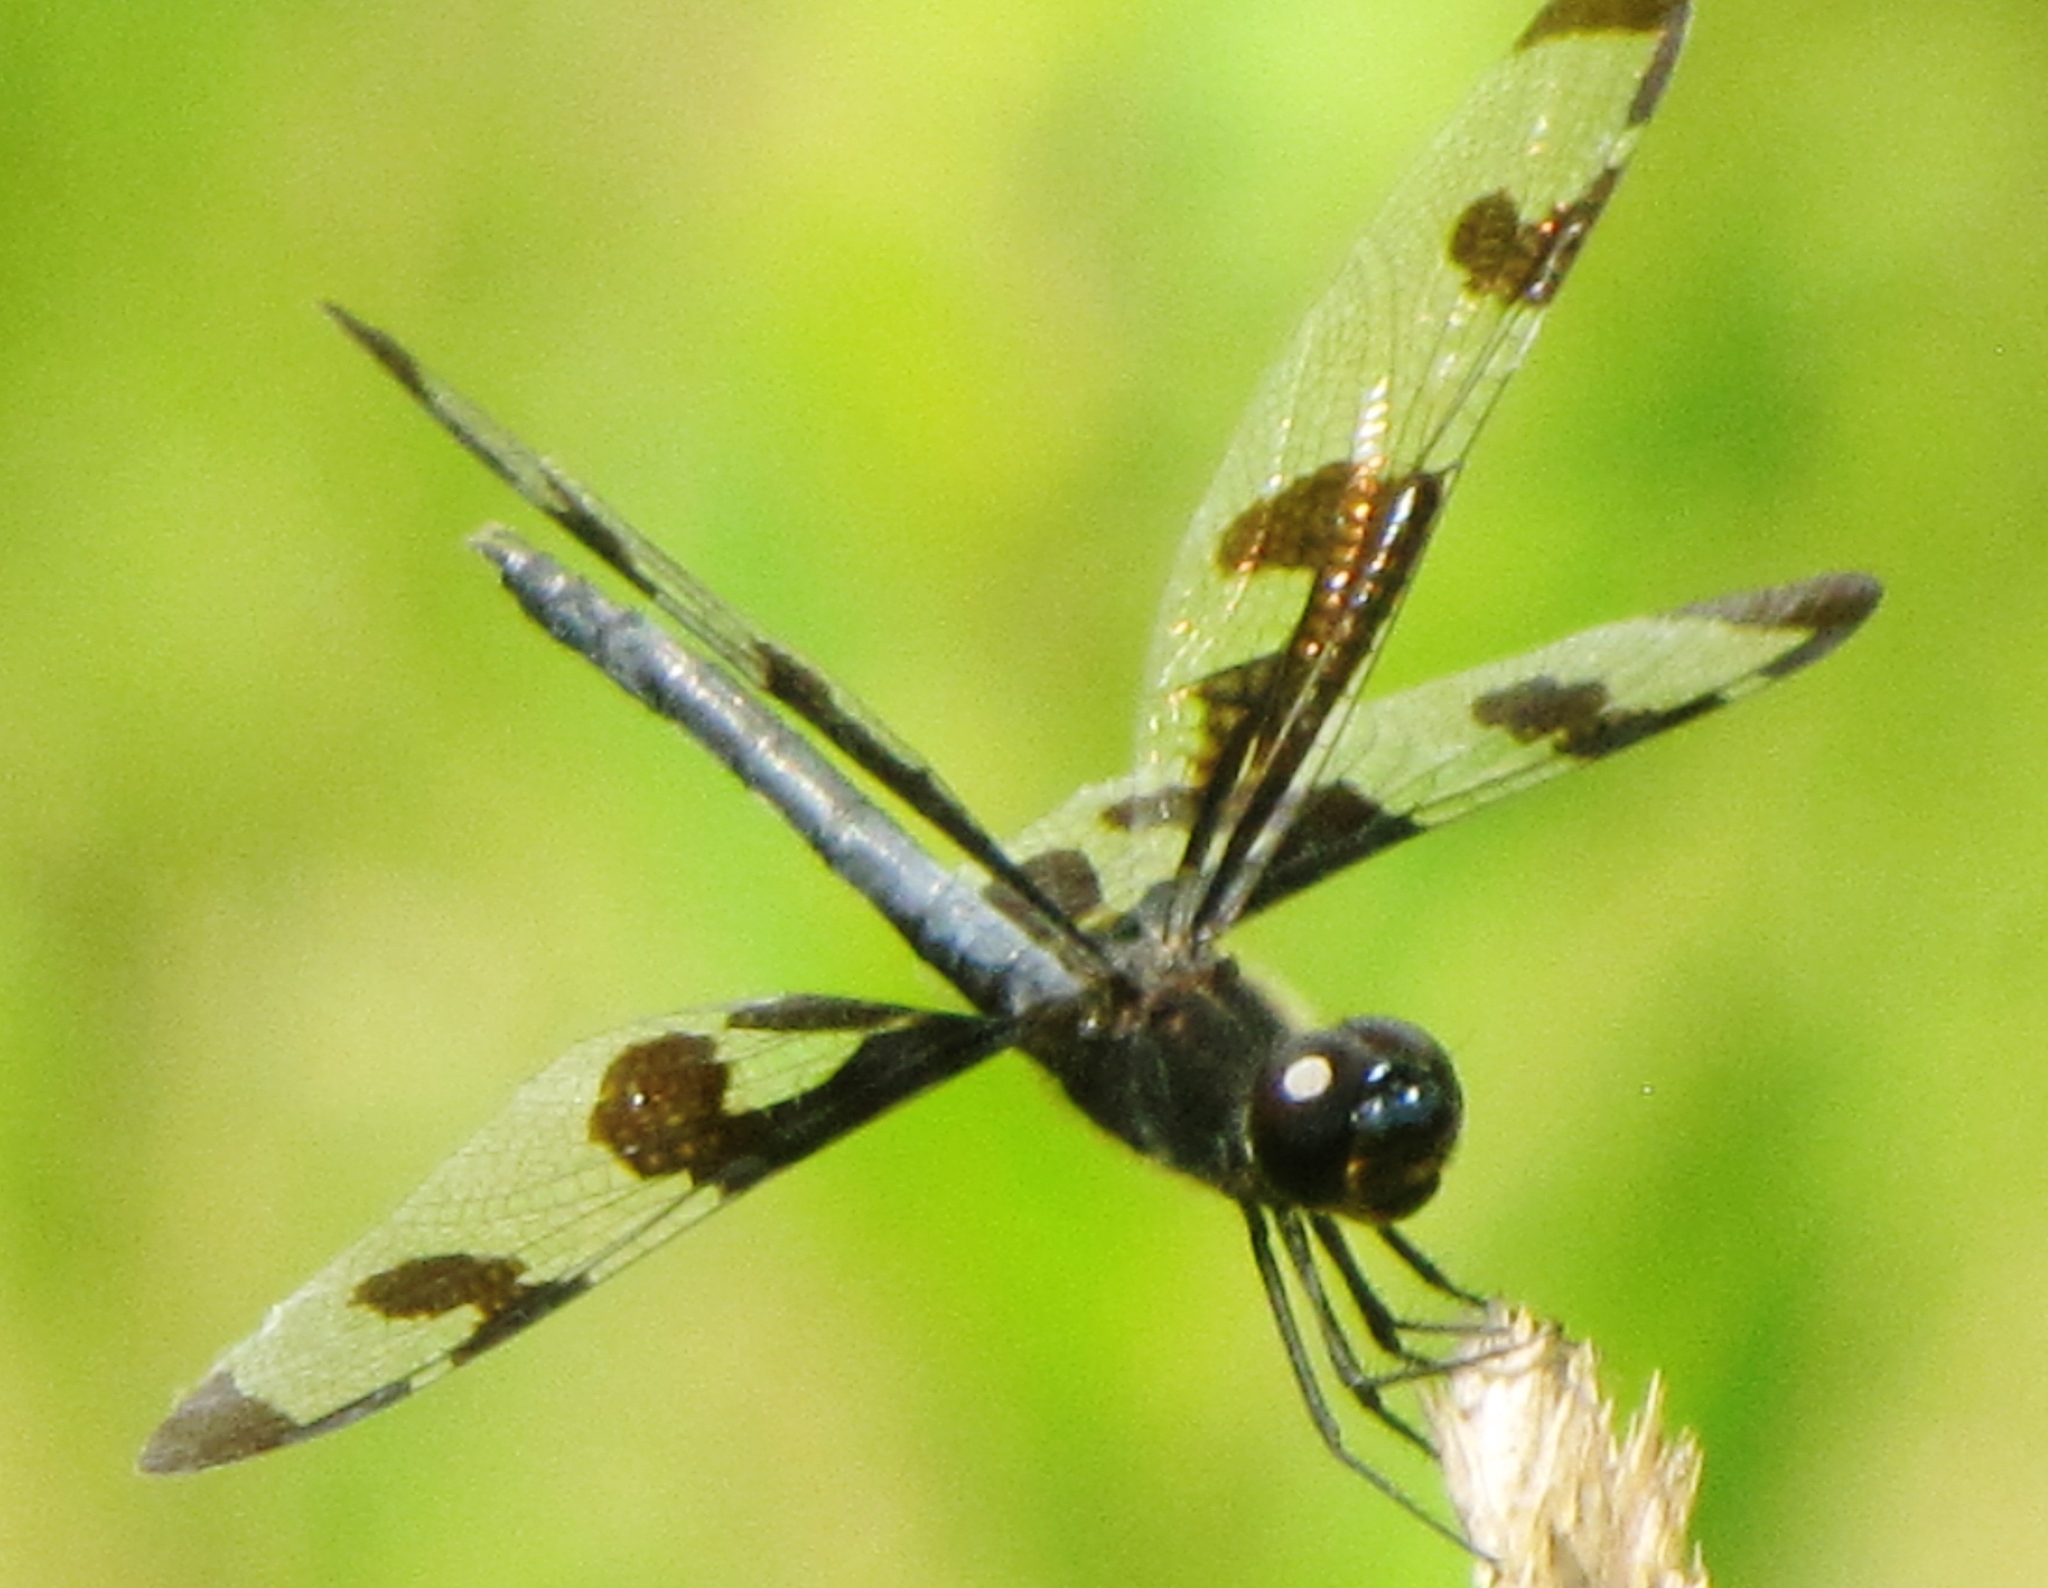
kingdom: Animalia
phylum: Arthropoda
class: Insecta
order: Odonata
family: Libellulidae
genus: Celithemis
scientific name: Celithemis fasciata
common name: Banded pennant
